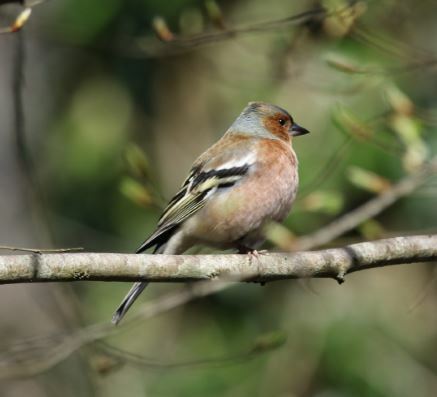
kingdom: Animalia
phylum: Chordata
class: Aves
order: Passeriformes
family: Fringillidae
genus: Fringilla
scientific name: Fringilla coelebs
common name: Common chaffinch
